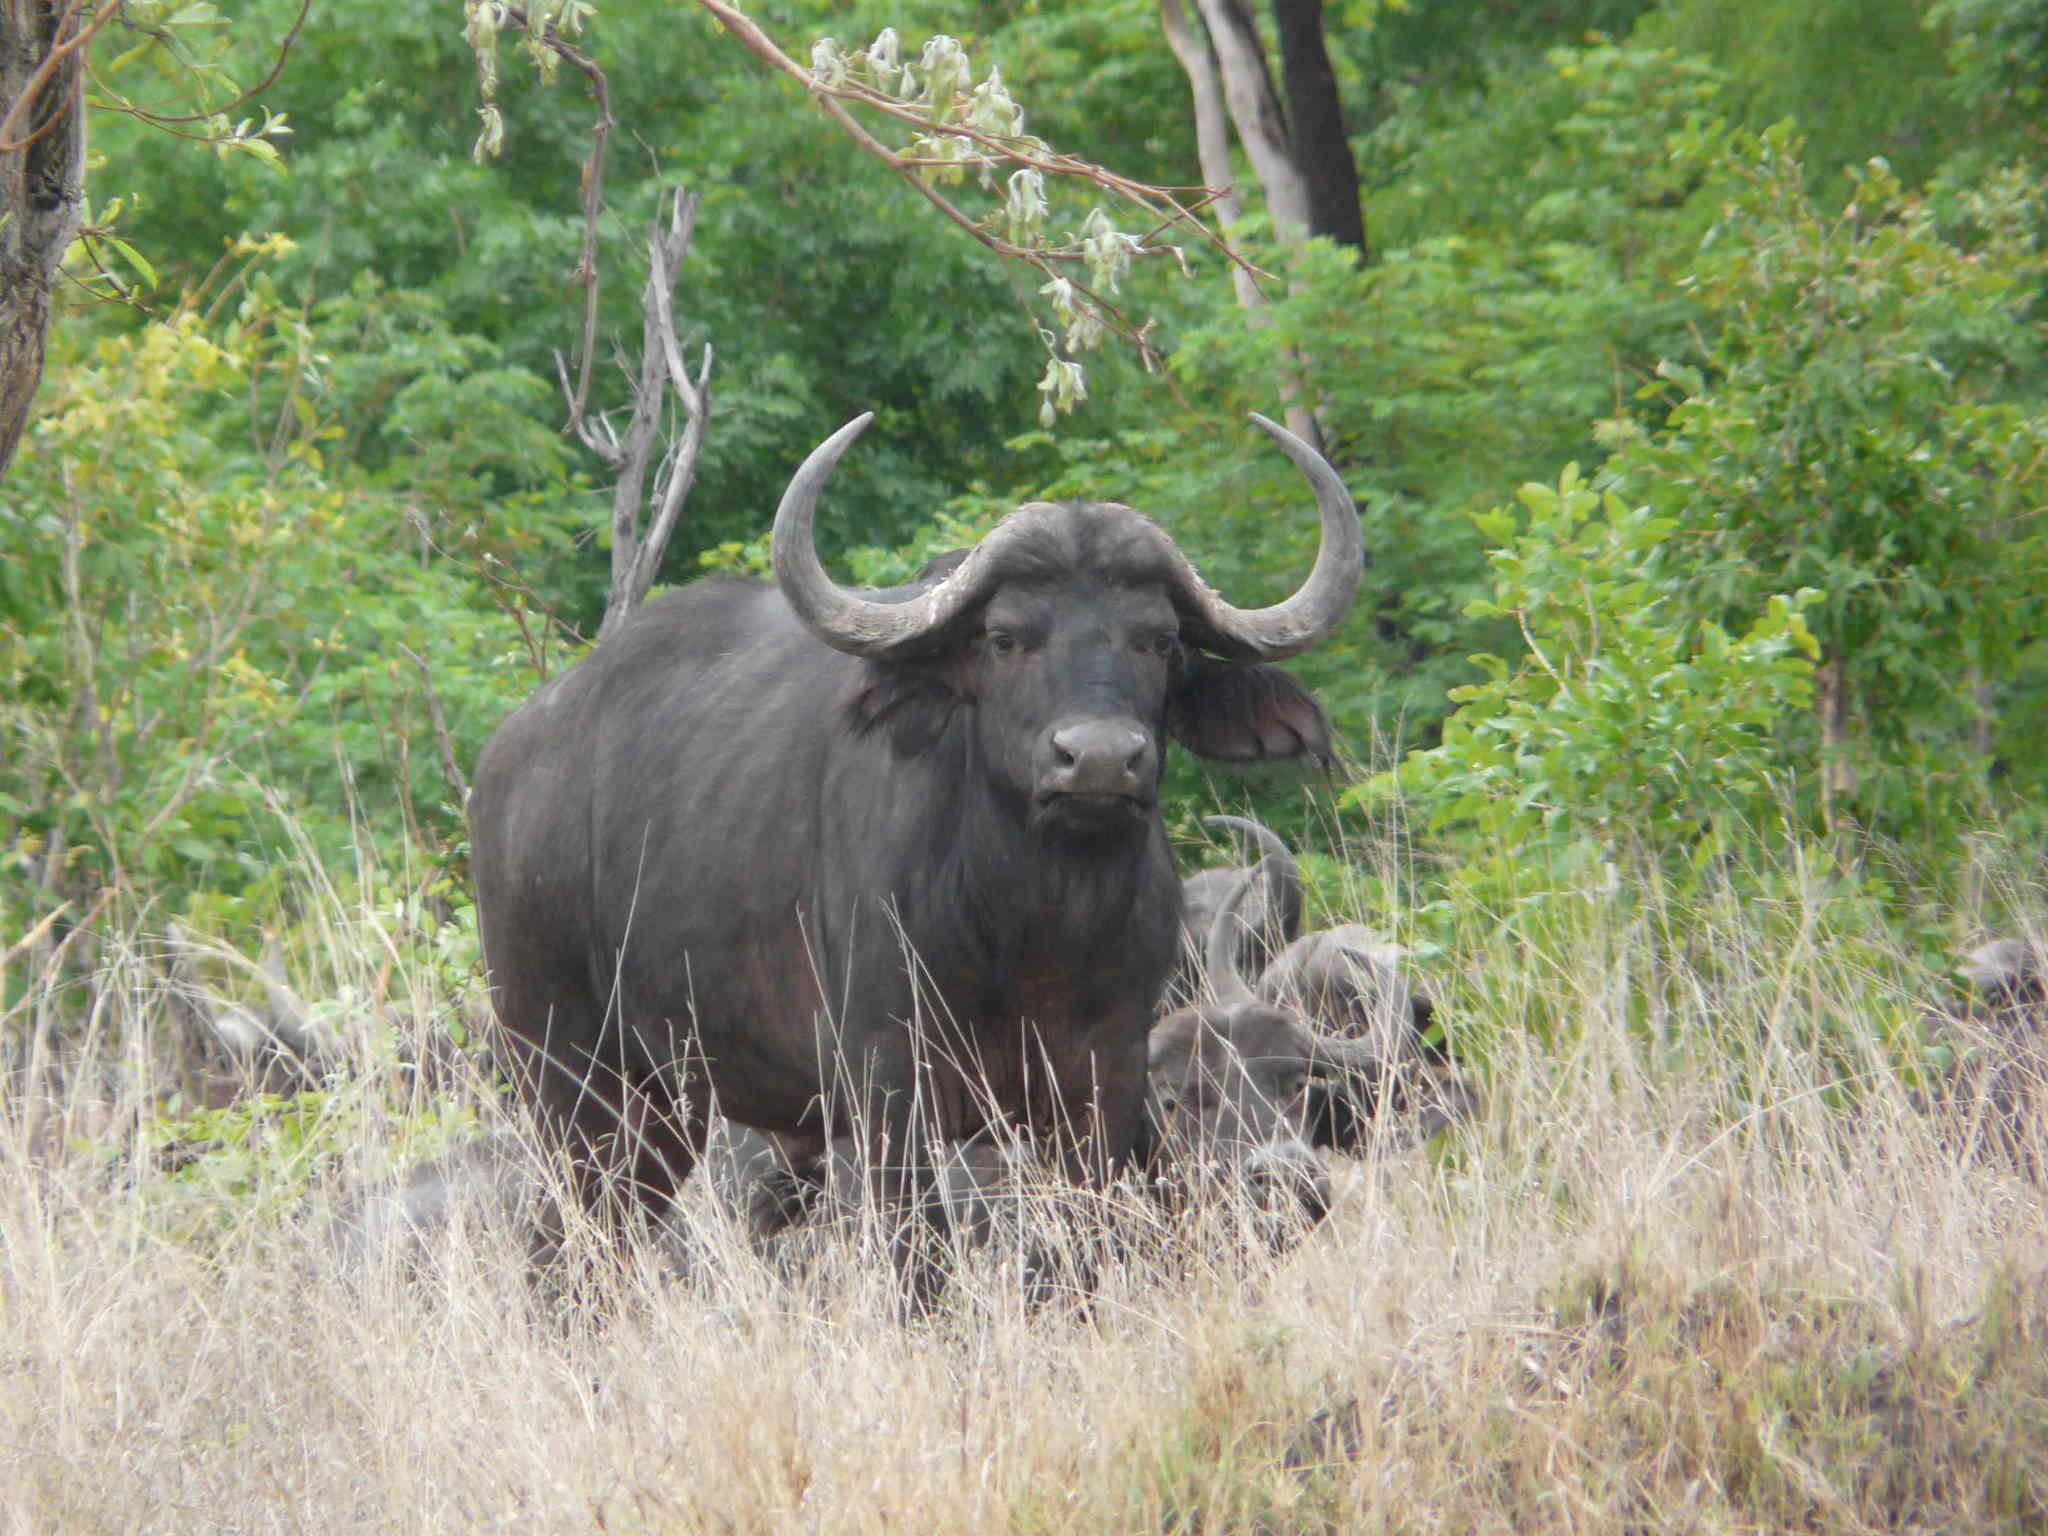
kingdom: Animalia
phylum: Chordata
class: Mammalia
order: Artiodactyla
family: Bovidae
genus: Syncerus
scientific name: Syncerus caffer
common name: African buffalo
